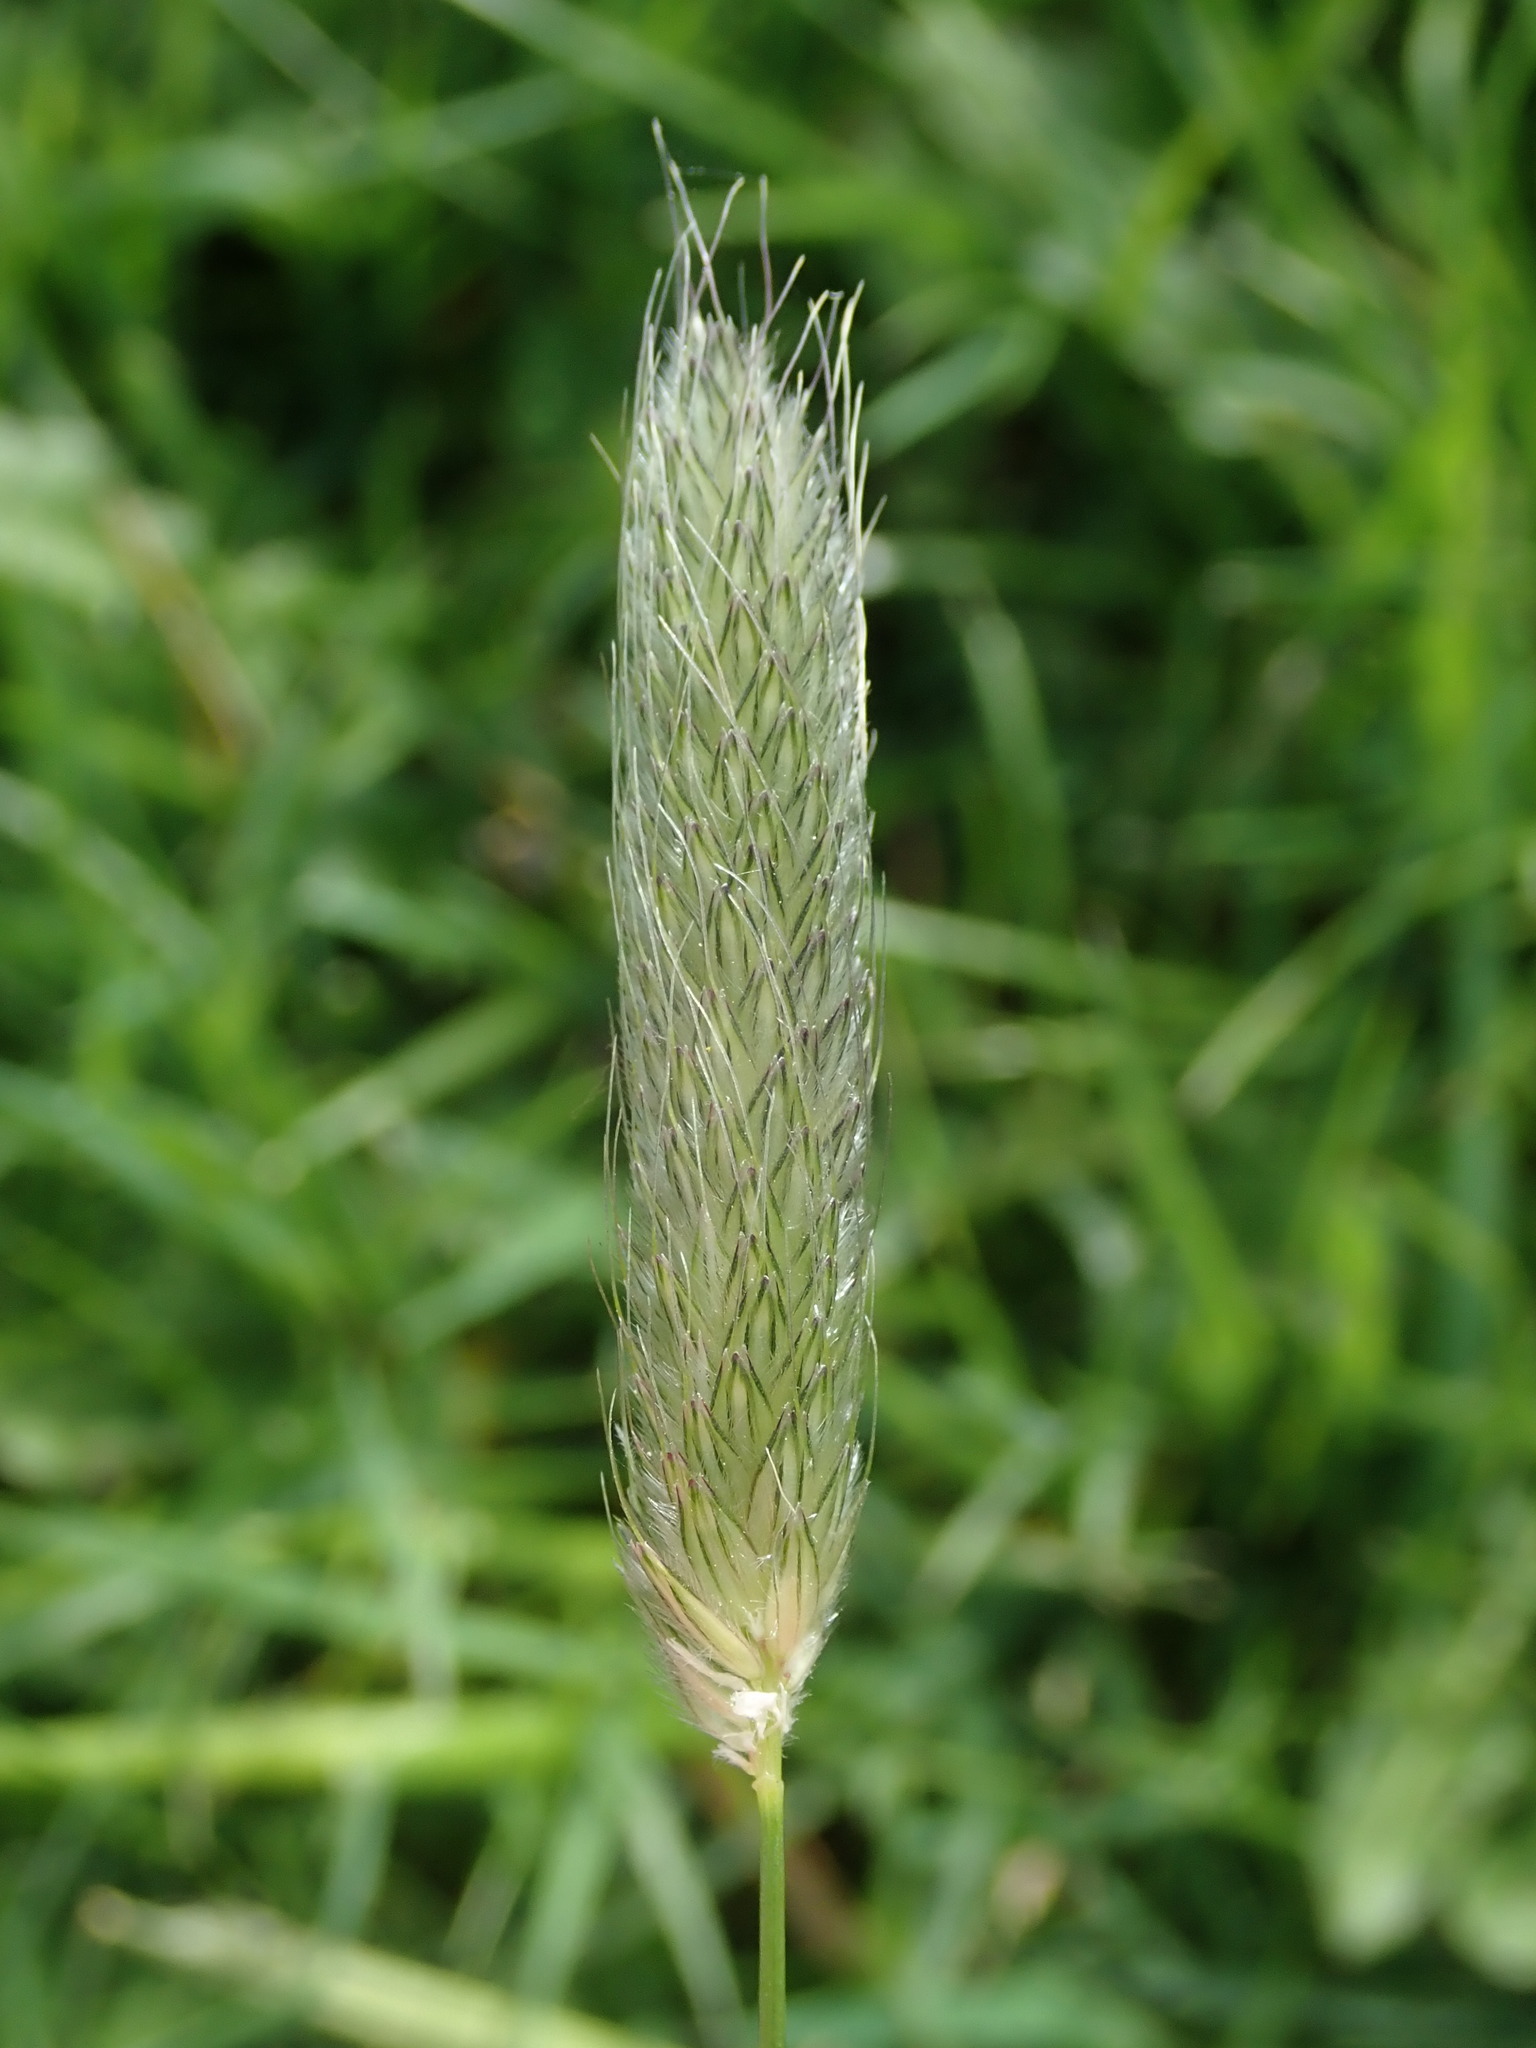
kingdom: Plantae
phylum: Tracheophyta
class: Liliopsida
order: Poales
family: Poaceae
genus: Alopecurus
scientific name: Alopecurus pratensis
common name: Meadow foxtail
